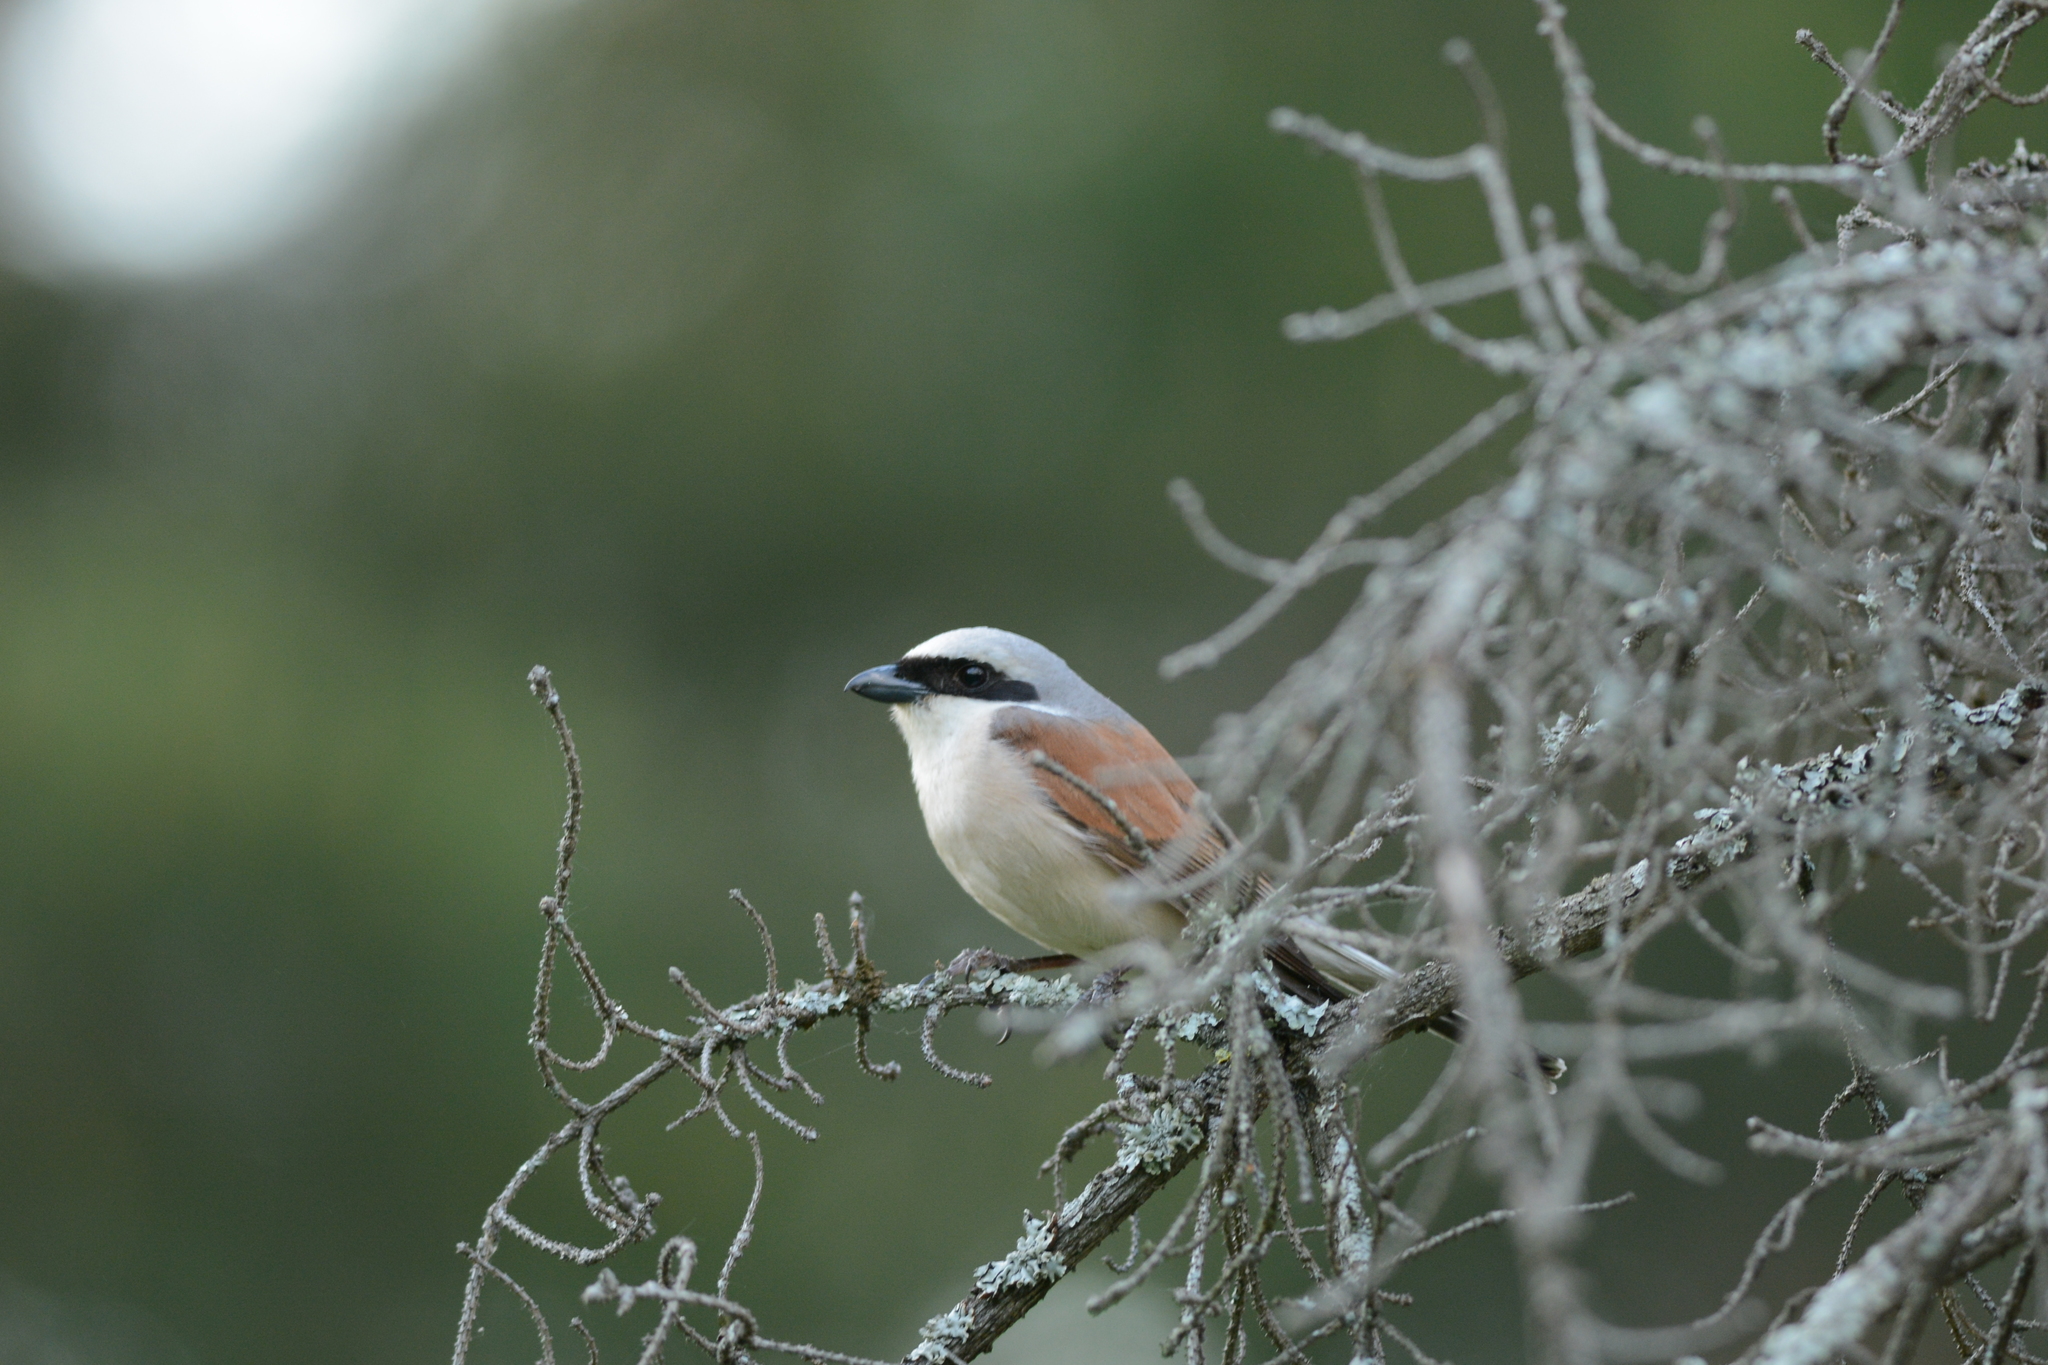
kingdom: Animalia
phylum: Chordata
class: Aves
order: Passeriformes
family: Laniidae
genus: Lanius
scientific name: Lanius collurio
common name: Red-backed shrike
